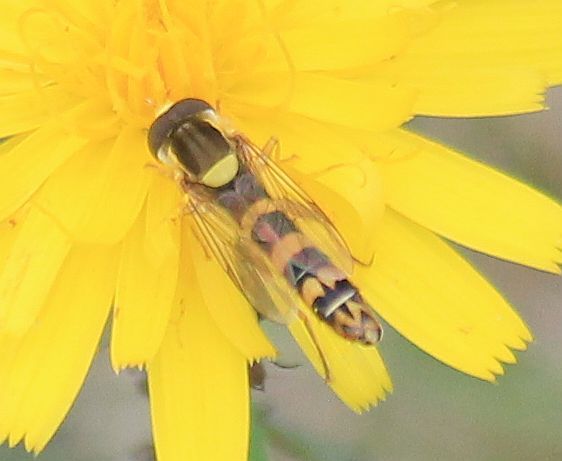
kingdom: Animalia
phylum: Arthropoda
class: Insecta
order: Diptera
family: Syrphidae
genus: Sphaerophoria
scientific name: Sphaerophoria scripta
